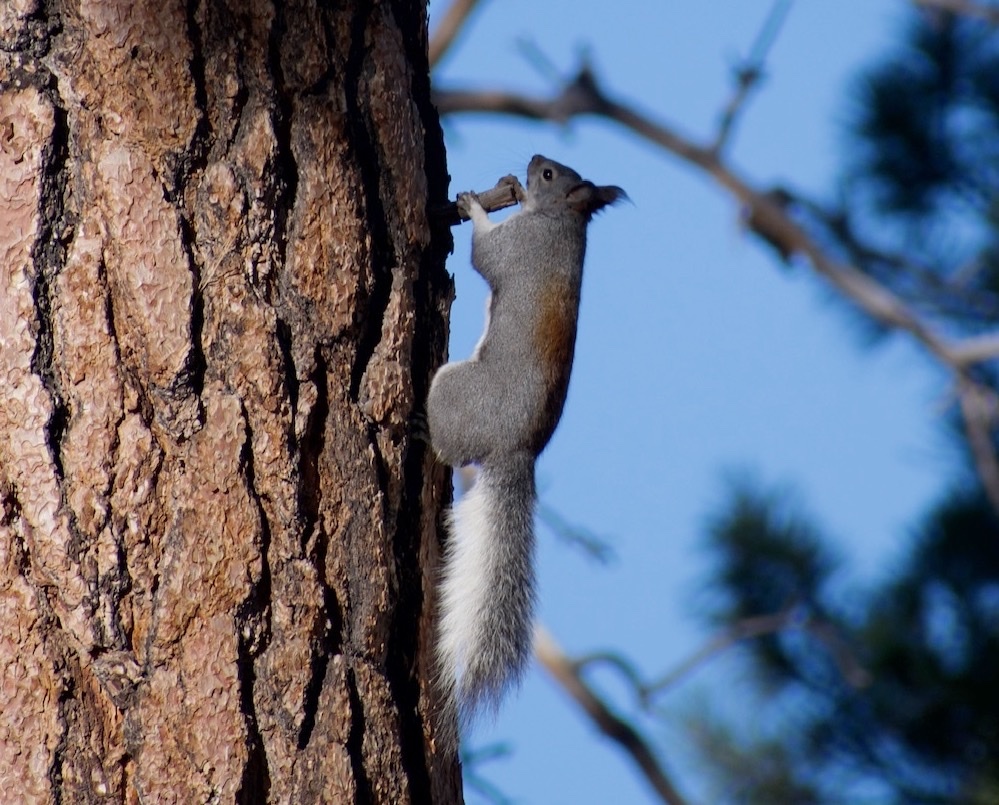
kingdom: Animalia
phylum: Chordata
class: Mammalia
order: Rodentia
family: Sciuridae
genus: Sciurus
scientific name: Sciurus aberti
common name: Abert's squirrel
